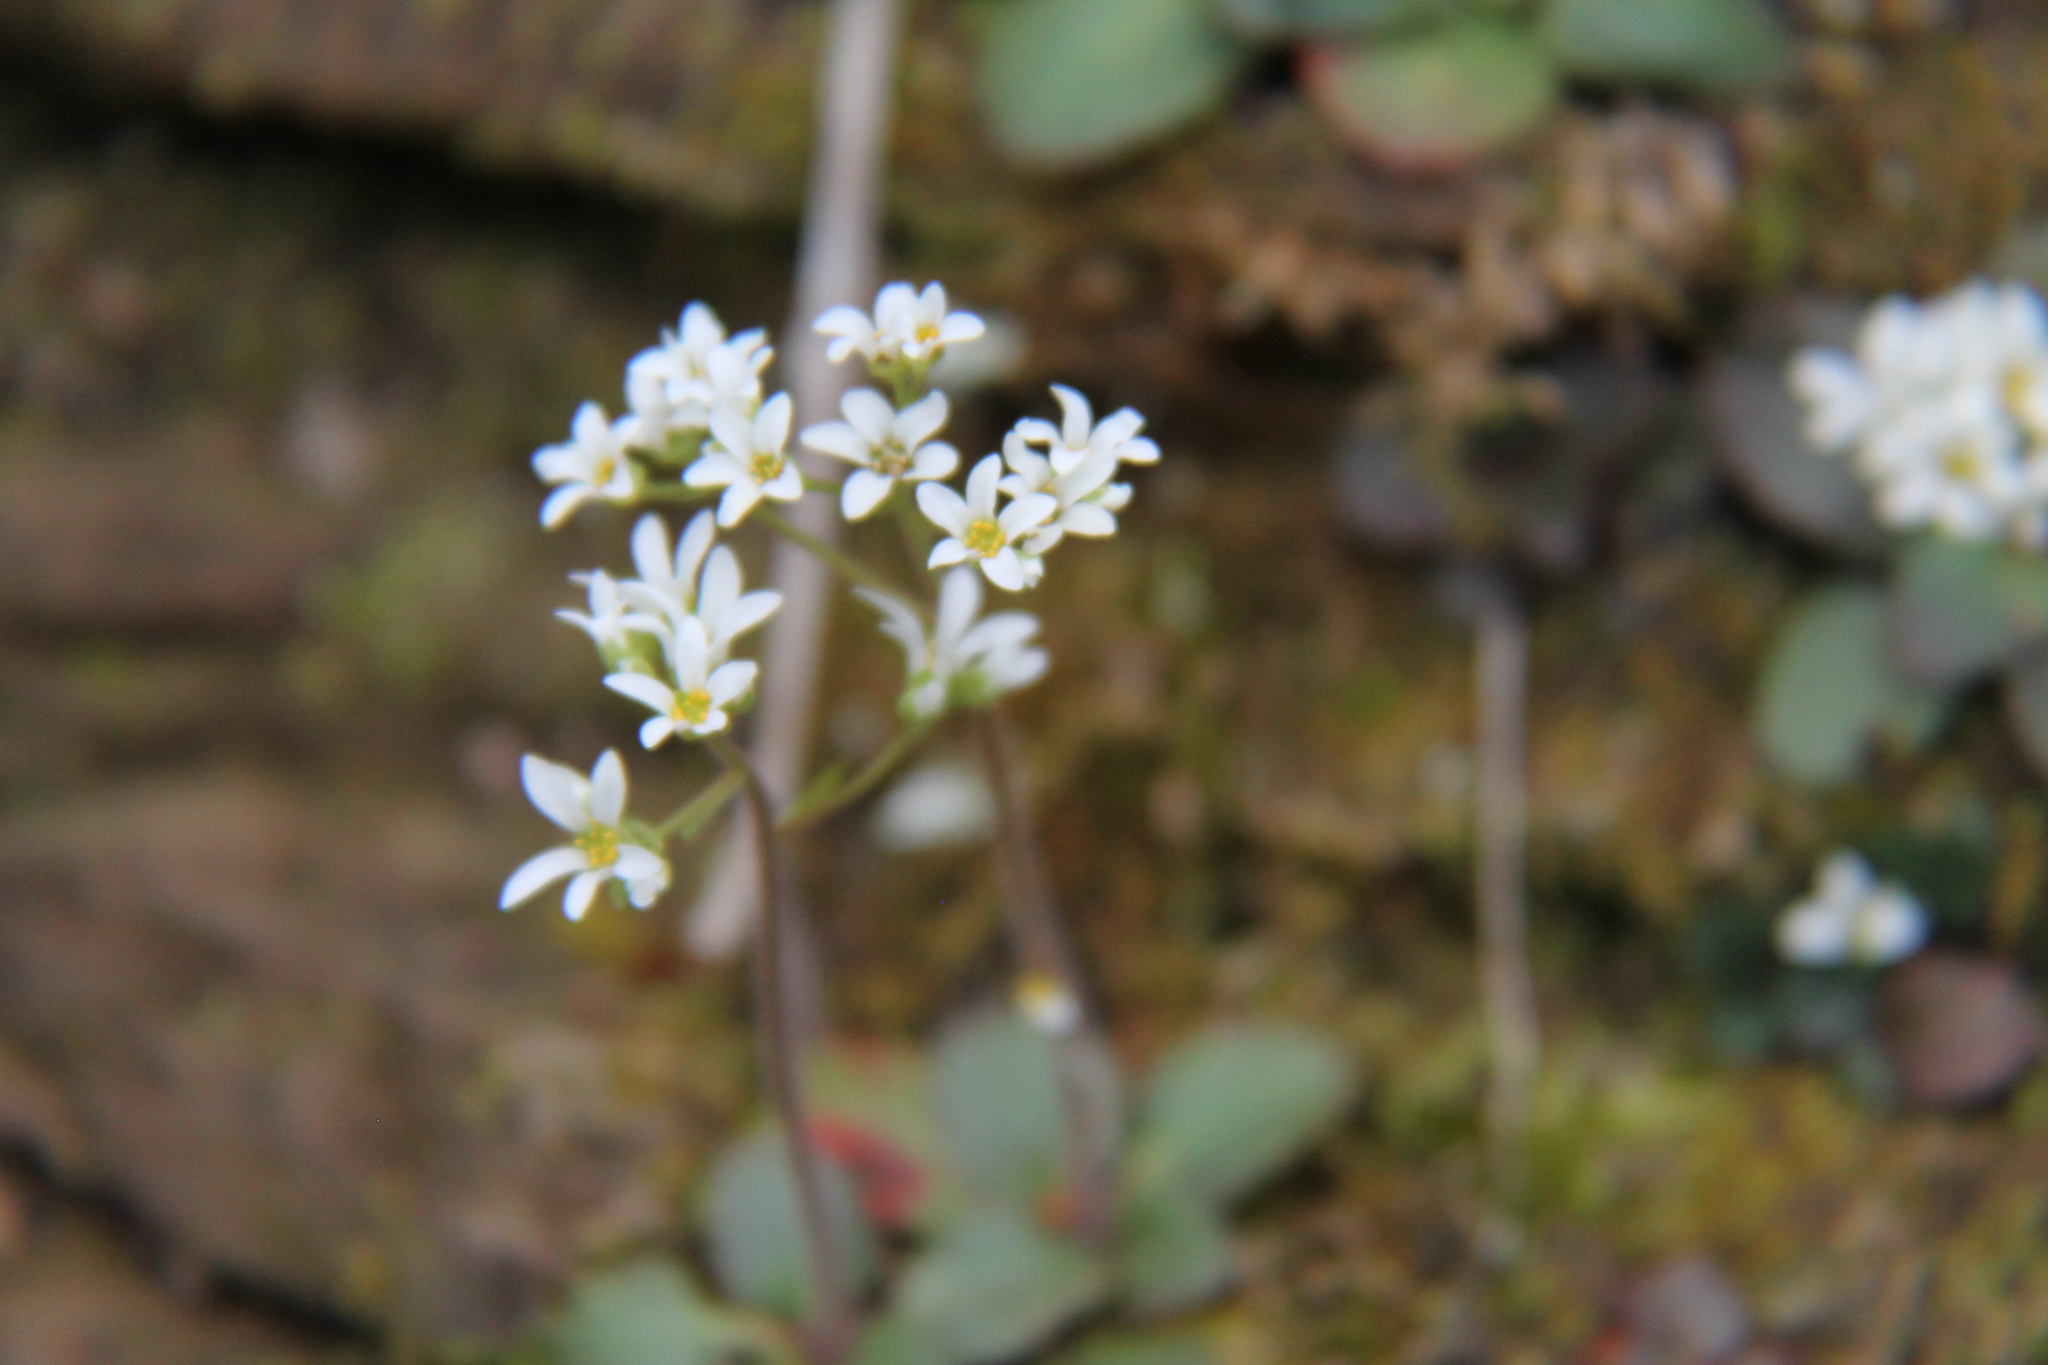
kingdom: Plantae
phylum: Tracheophyta
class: Magnoliopsida
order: Saxifragales
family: Saxifragaceae
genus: Micranthes
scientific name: Micranthes virginiensis
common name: Early saxifrage
